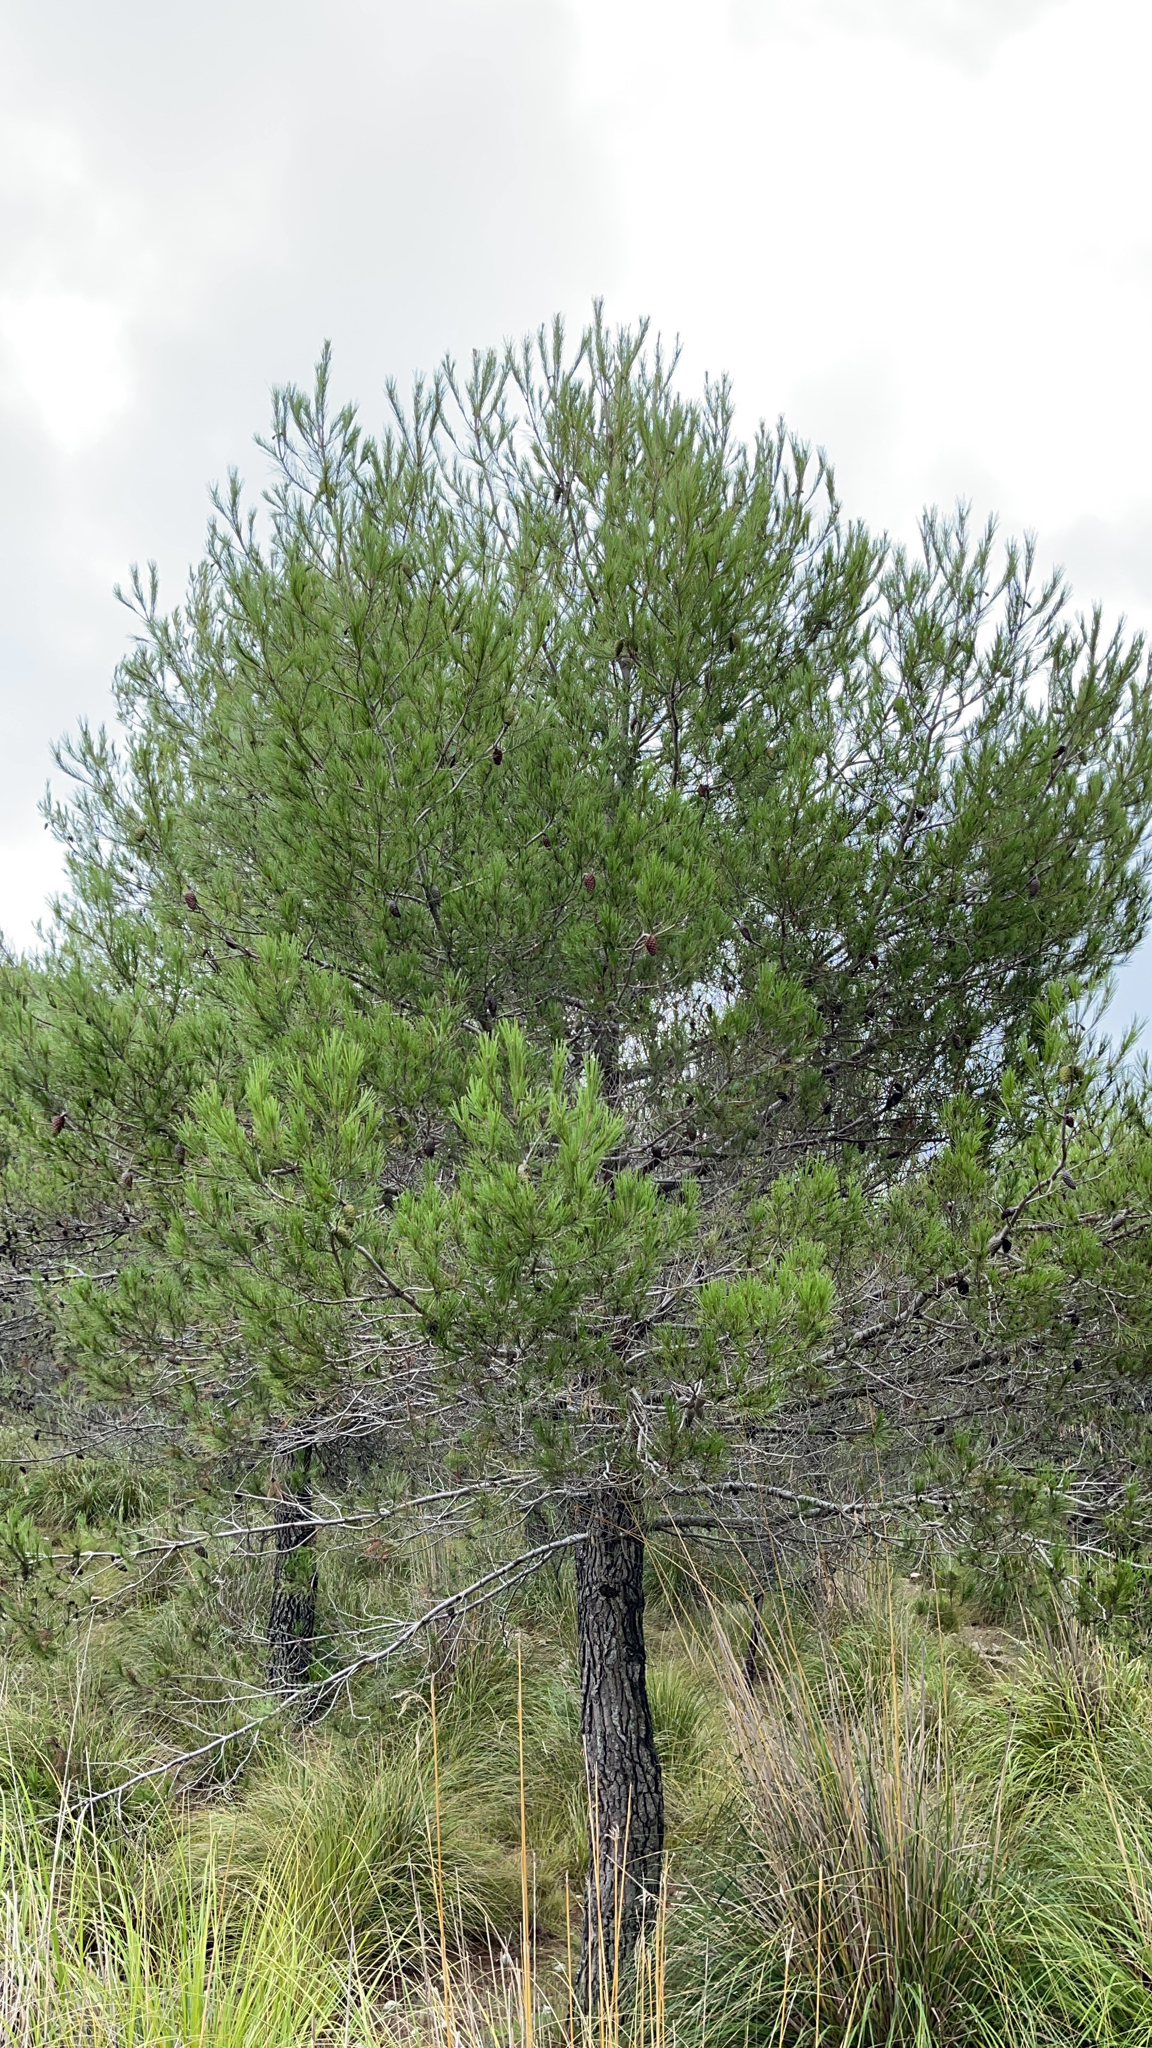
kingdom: Plantae
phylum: Tracheophyta
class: Pinopsida
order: Pinales
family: Pinaceae
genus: Pinus
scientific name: Pinus halepensis
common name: Aleppo pine
